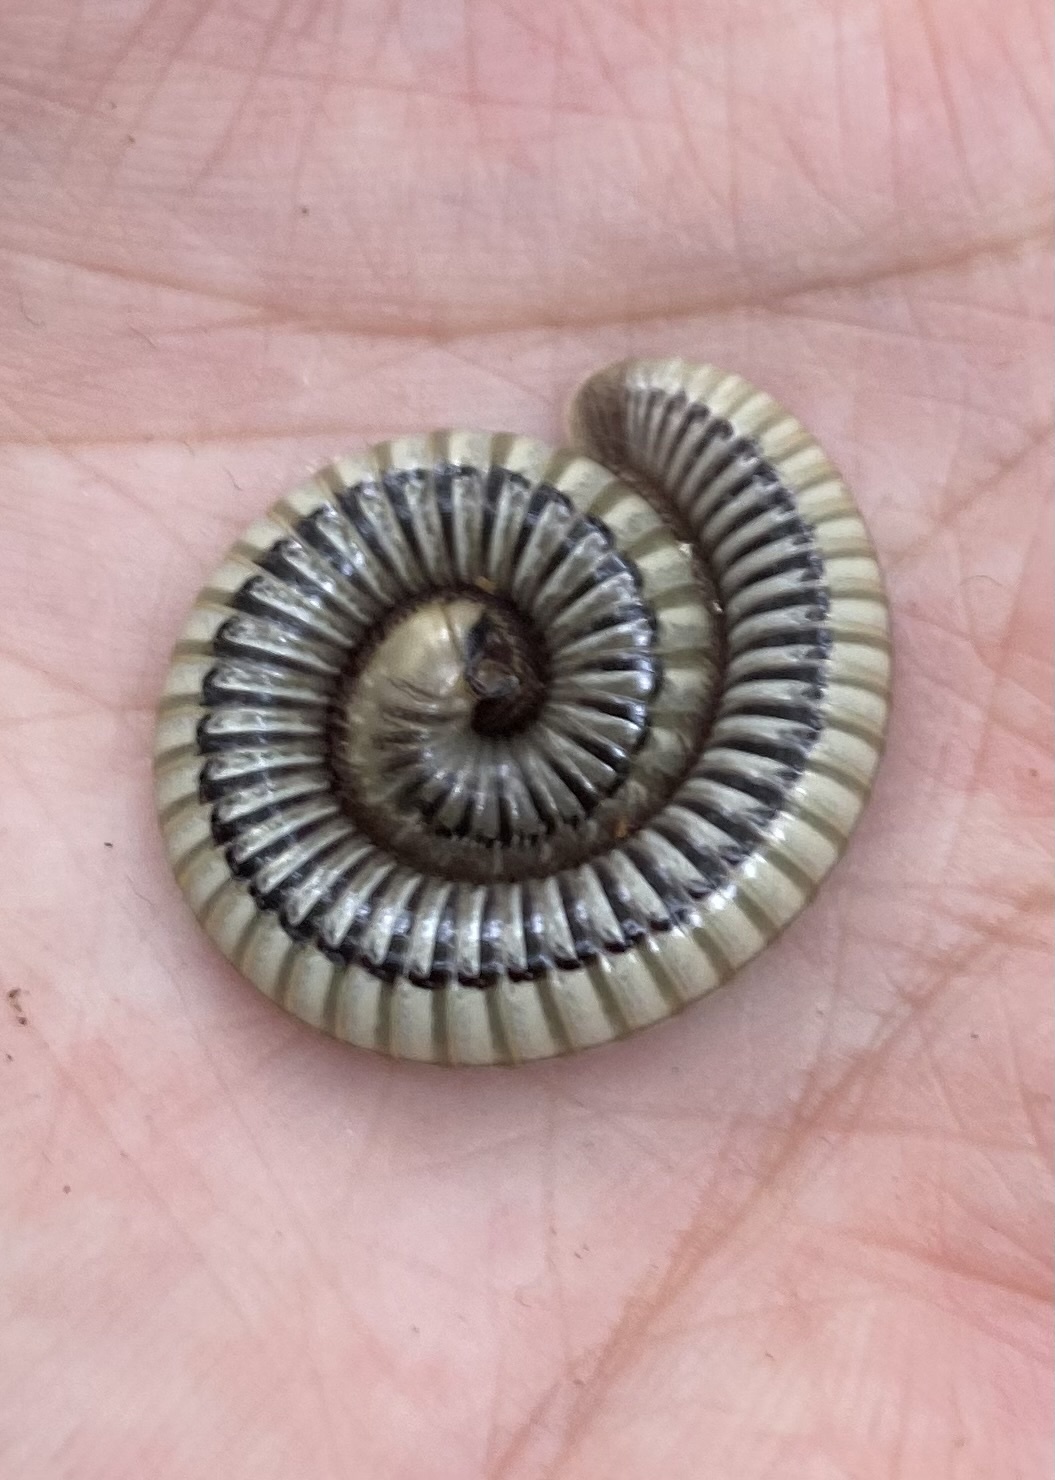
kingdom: Animalia
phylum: Arthropoda
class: Diplopoda
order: Julida
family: Julidae
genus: Pachyiulus
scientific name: Pachyiulus krivolutskyi
